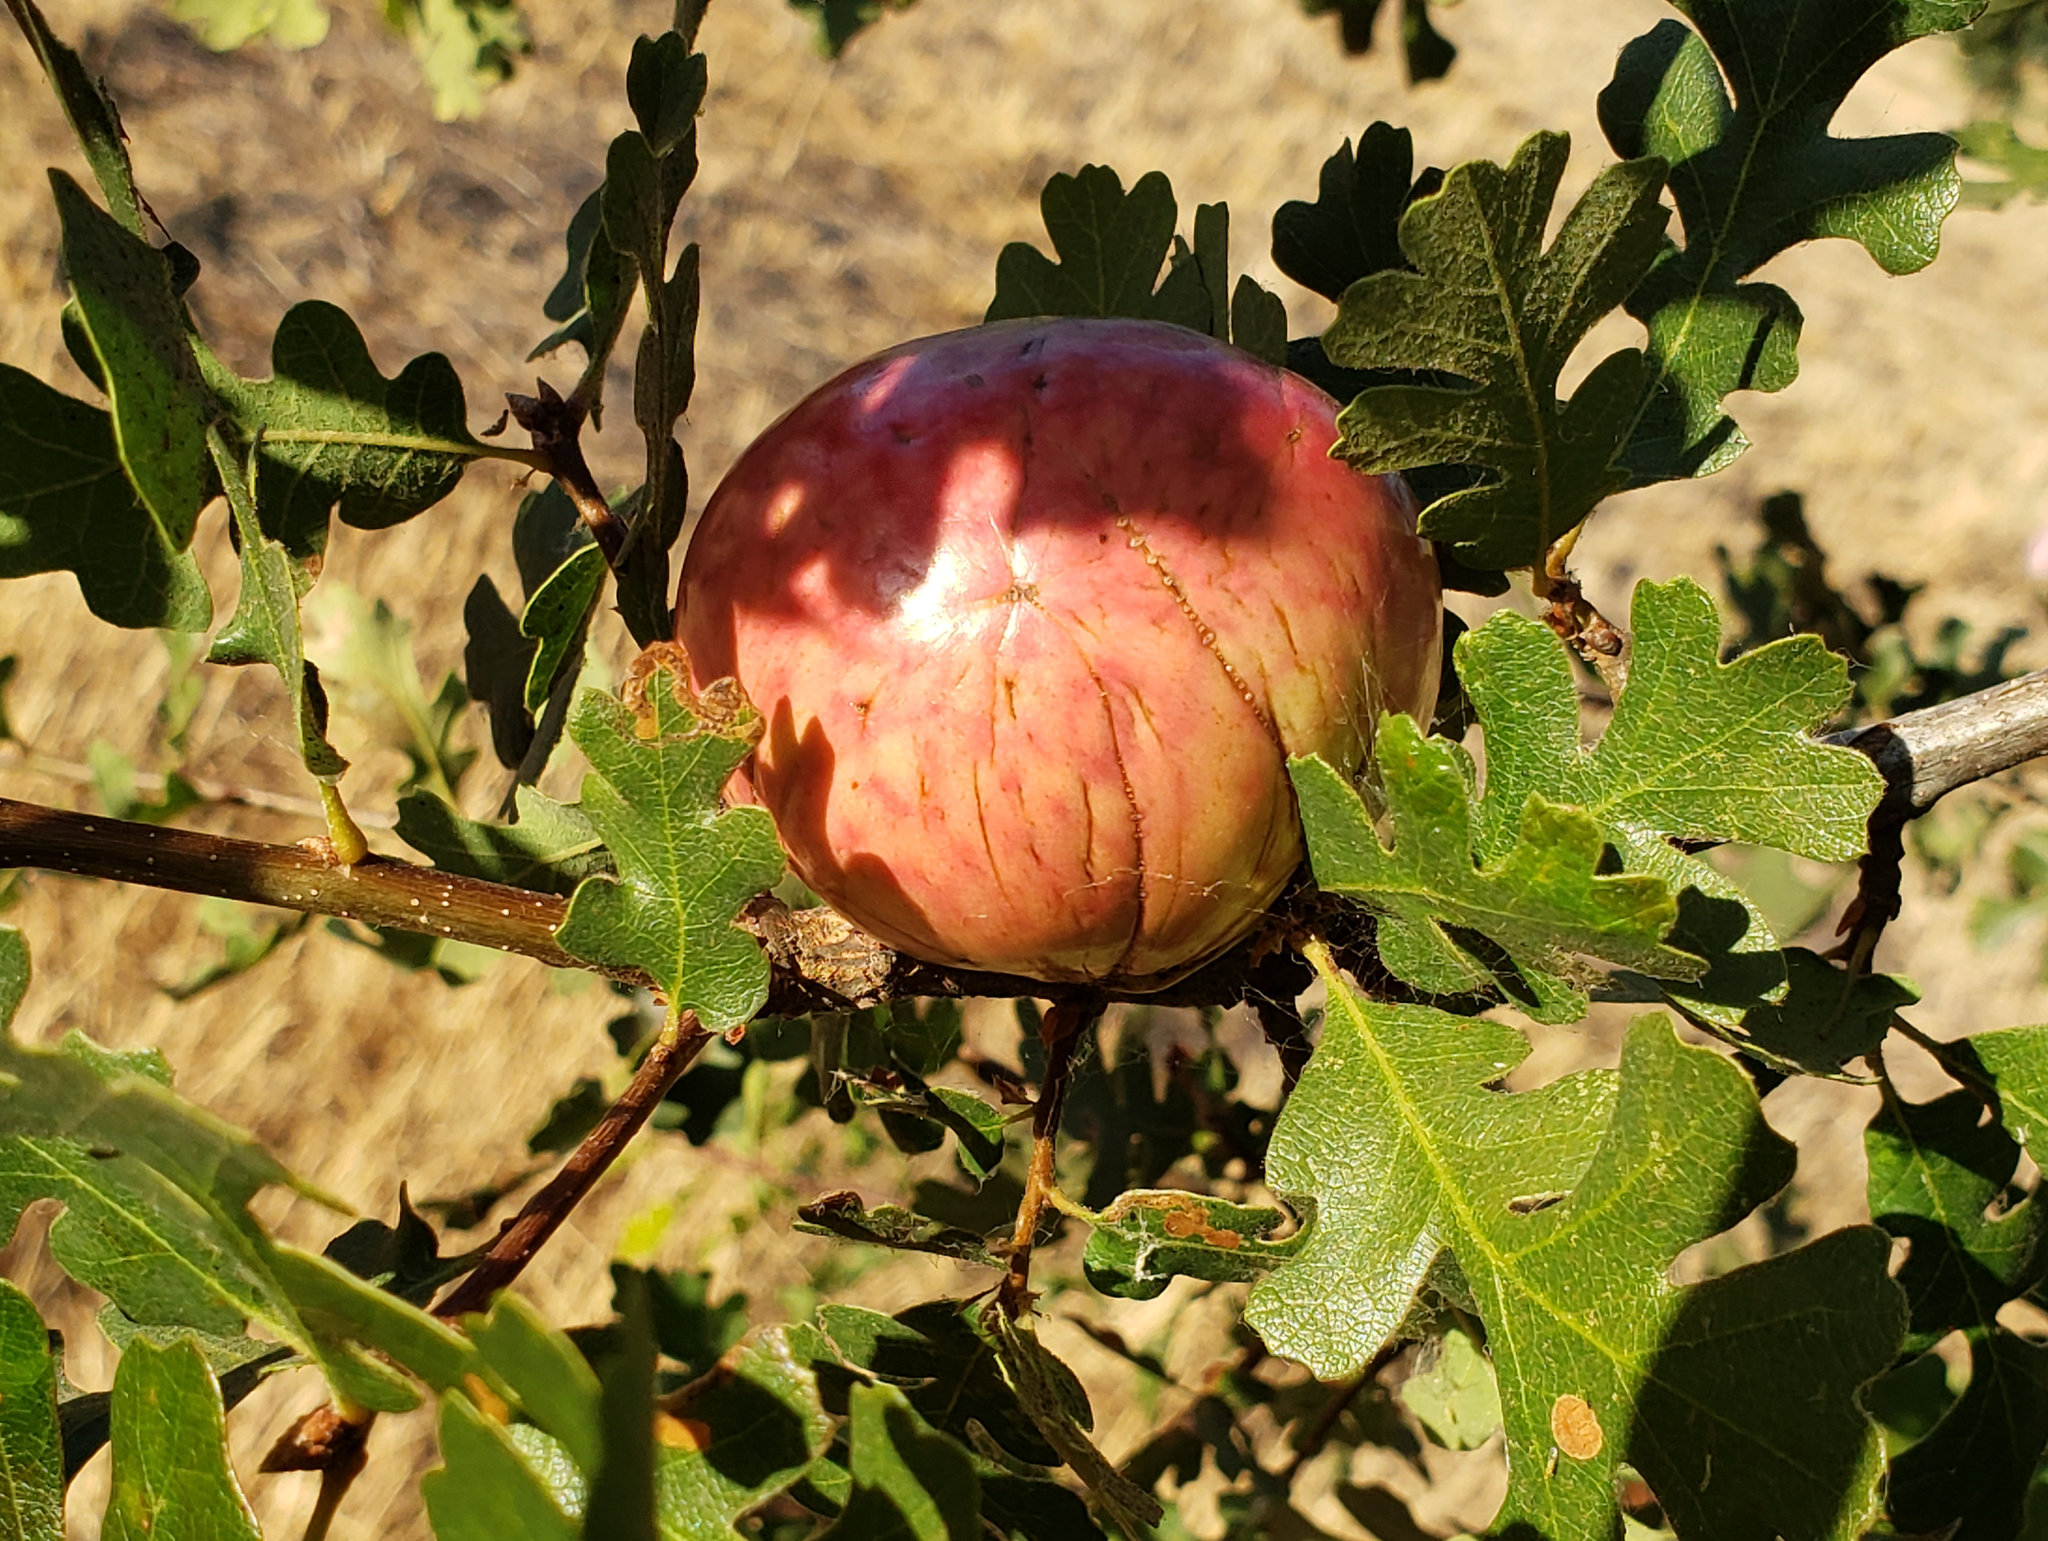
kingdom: Animalia
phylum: Arthropoda
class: Insecta
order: Hymenoptera
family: Cynipidae
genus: Andricus
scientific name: Andricus quercuscalifornicus
